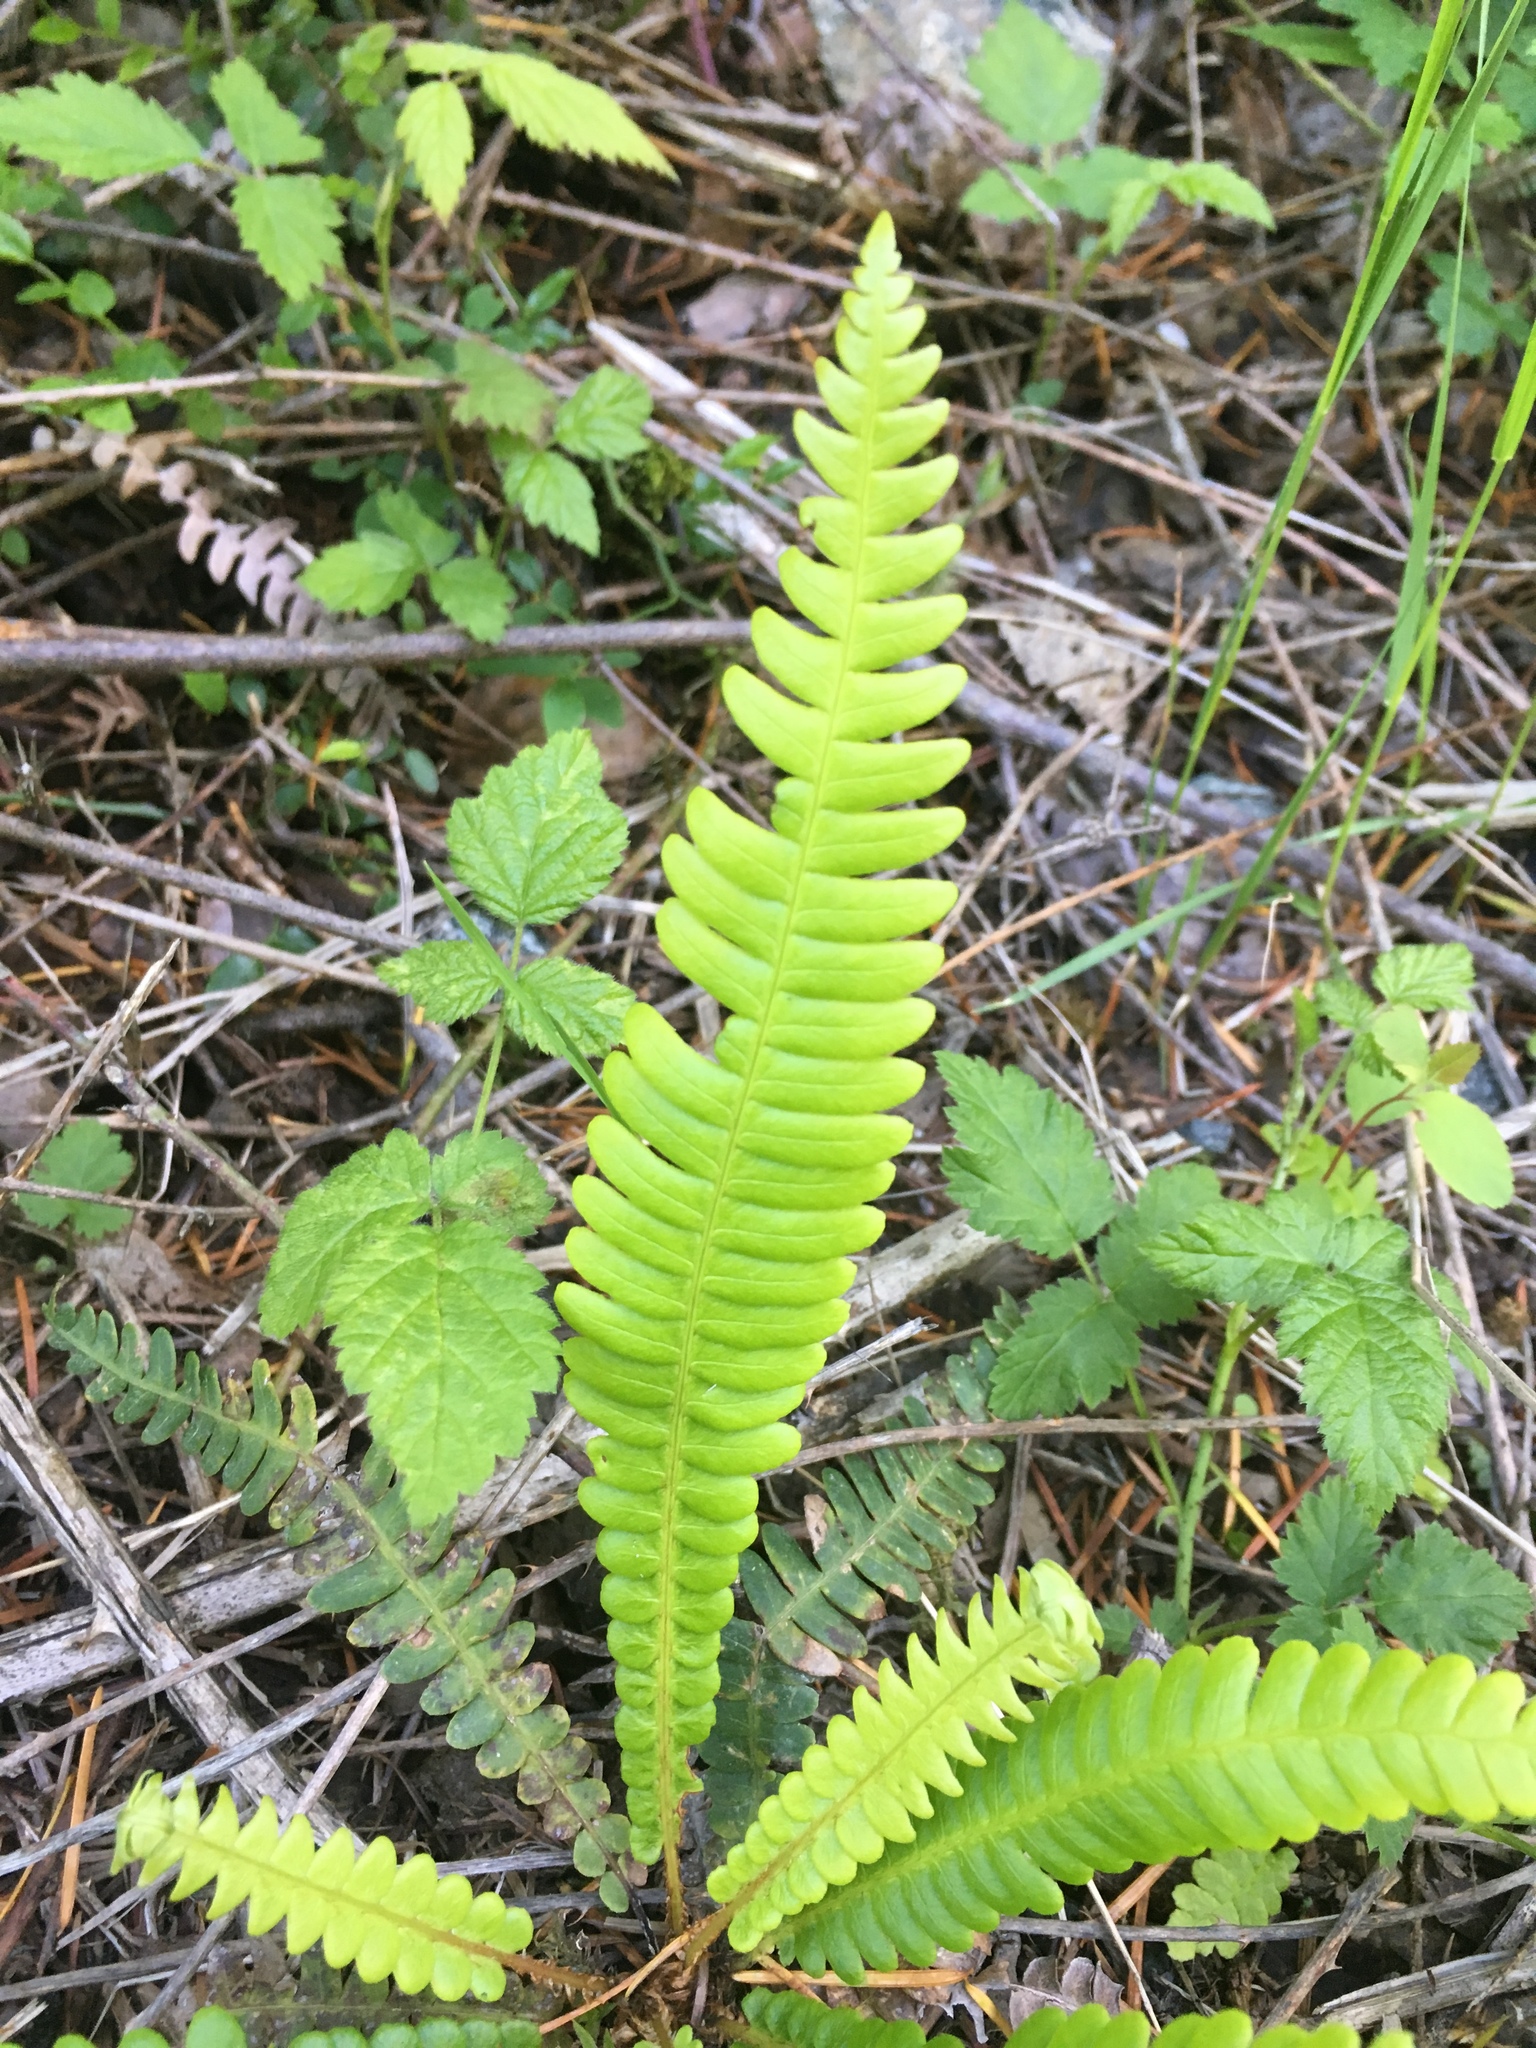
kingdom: Plantae
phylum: Tracheophyta
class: Polypodiopsida
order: Polypodiales
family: Blechnaceae
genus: Struthiopteris
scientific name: Struthiopteris spicant
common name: Deer fern
